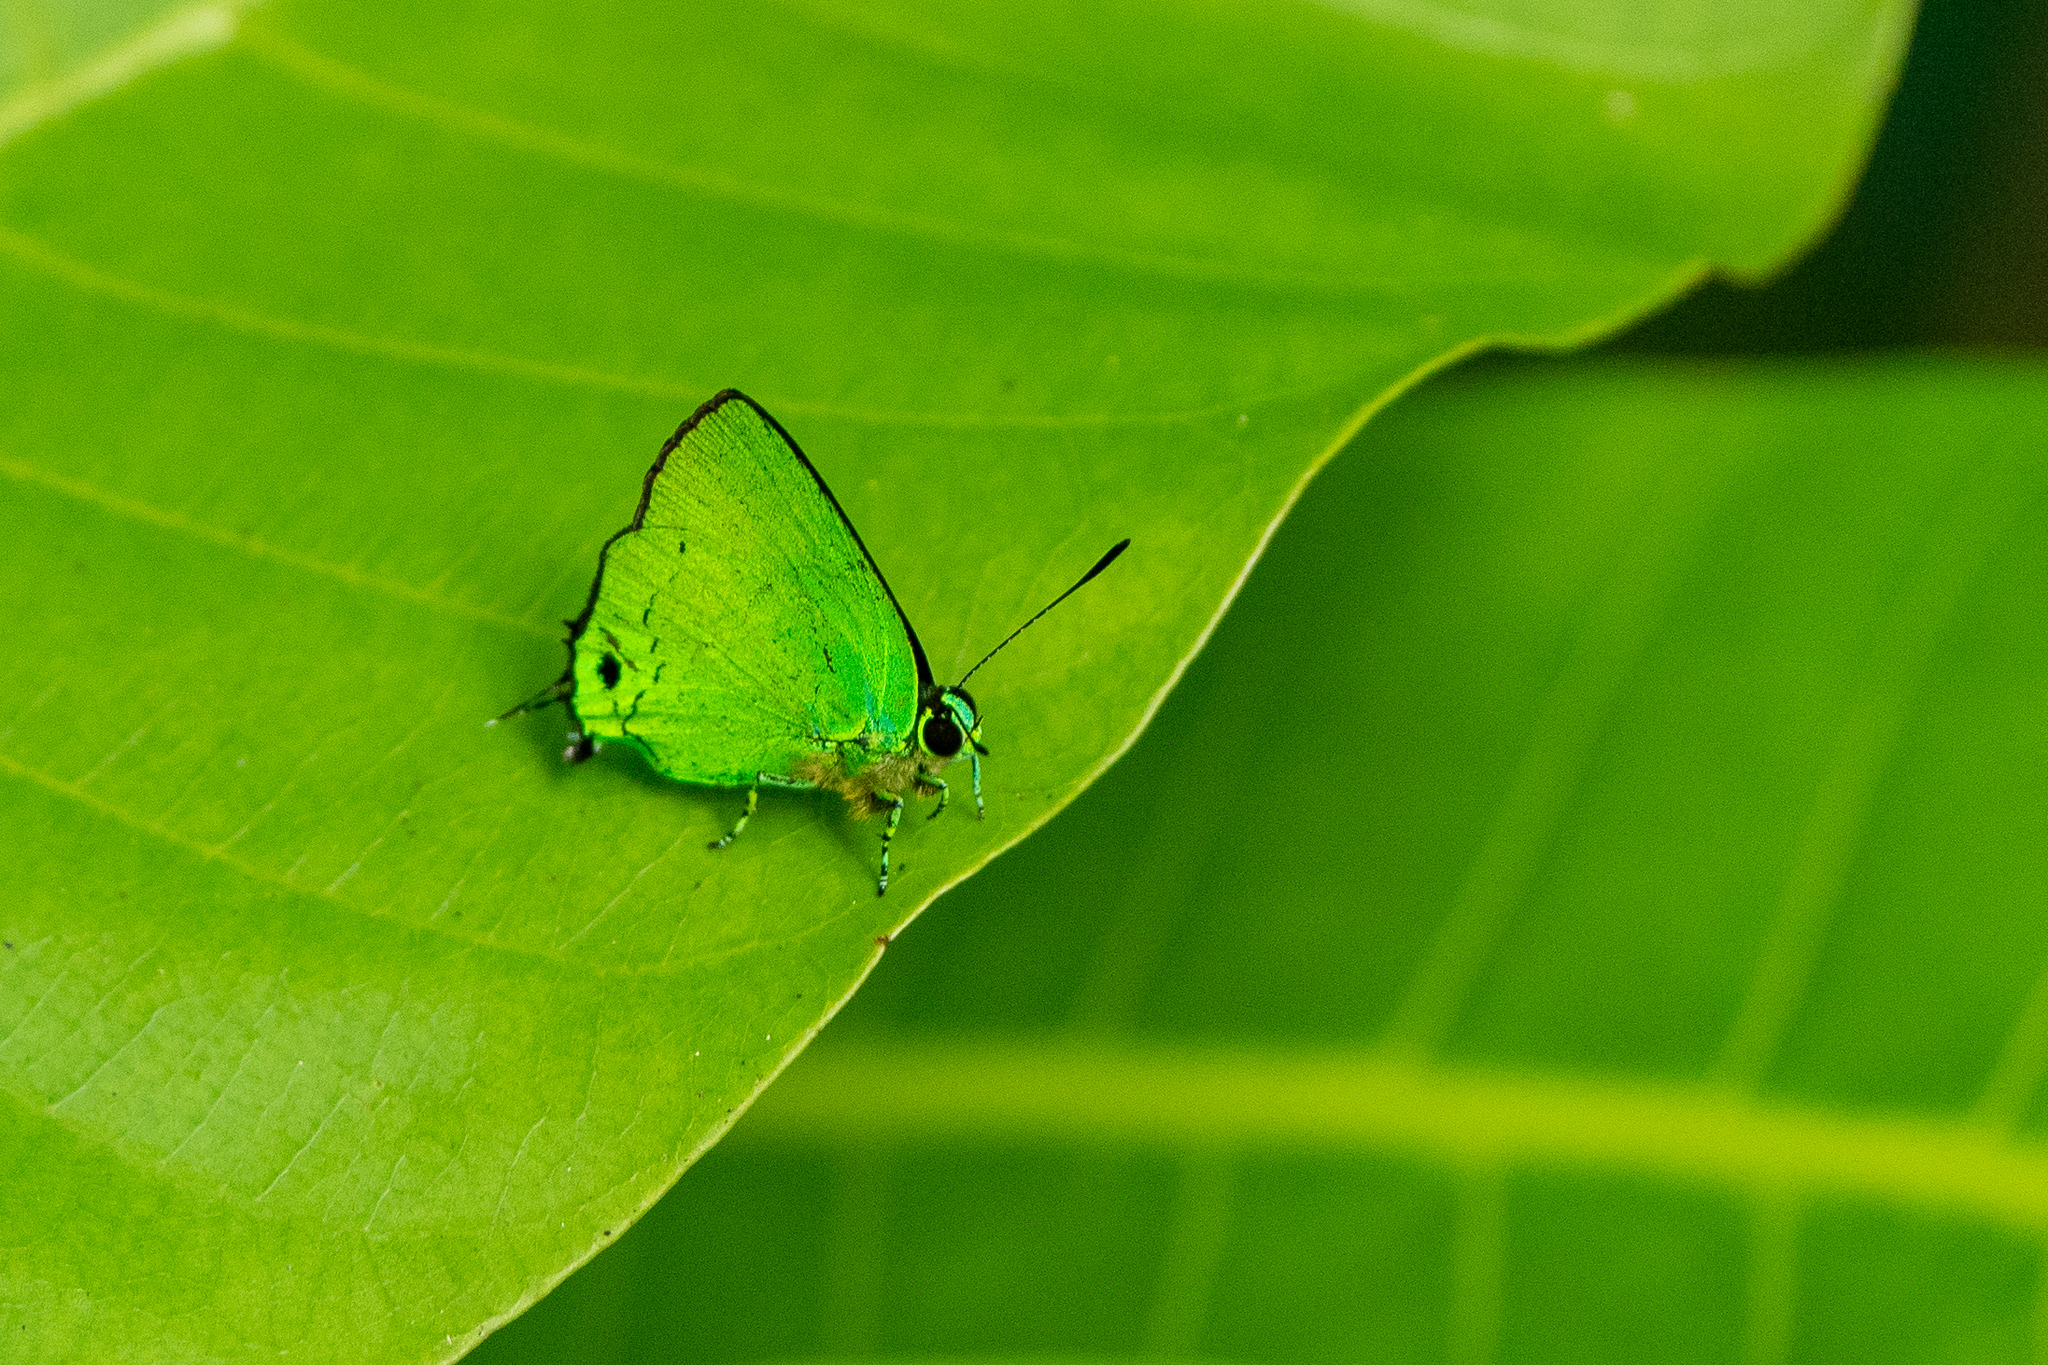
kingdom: Animalia
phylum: Arthropoda
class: Insecta
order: Lepidoptera
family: Lycaenidae
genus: Chalybs
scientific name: Chalybs cecina
